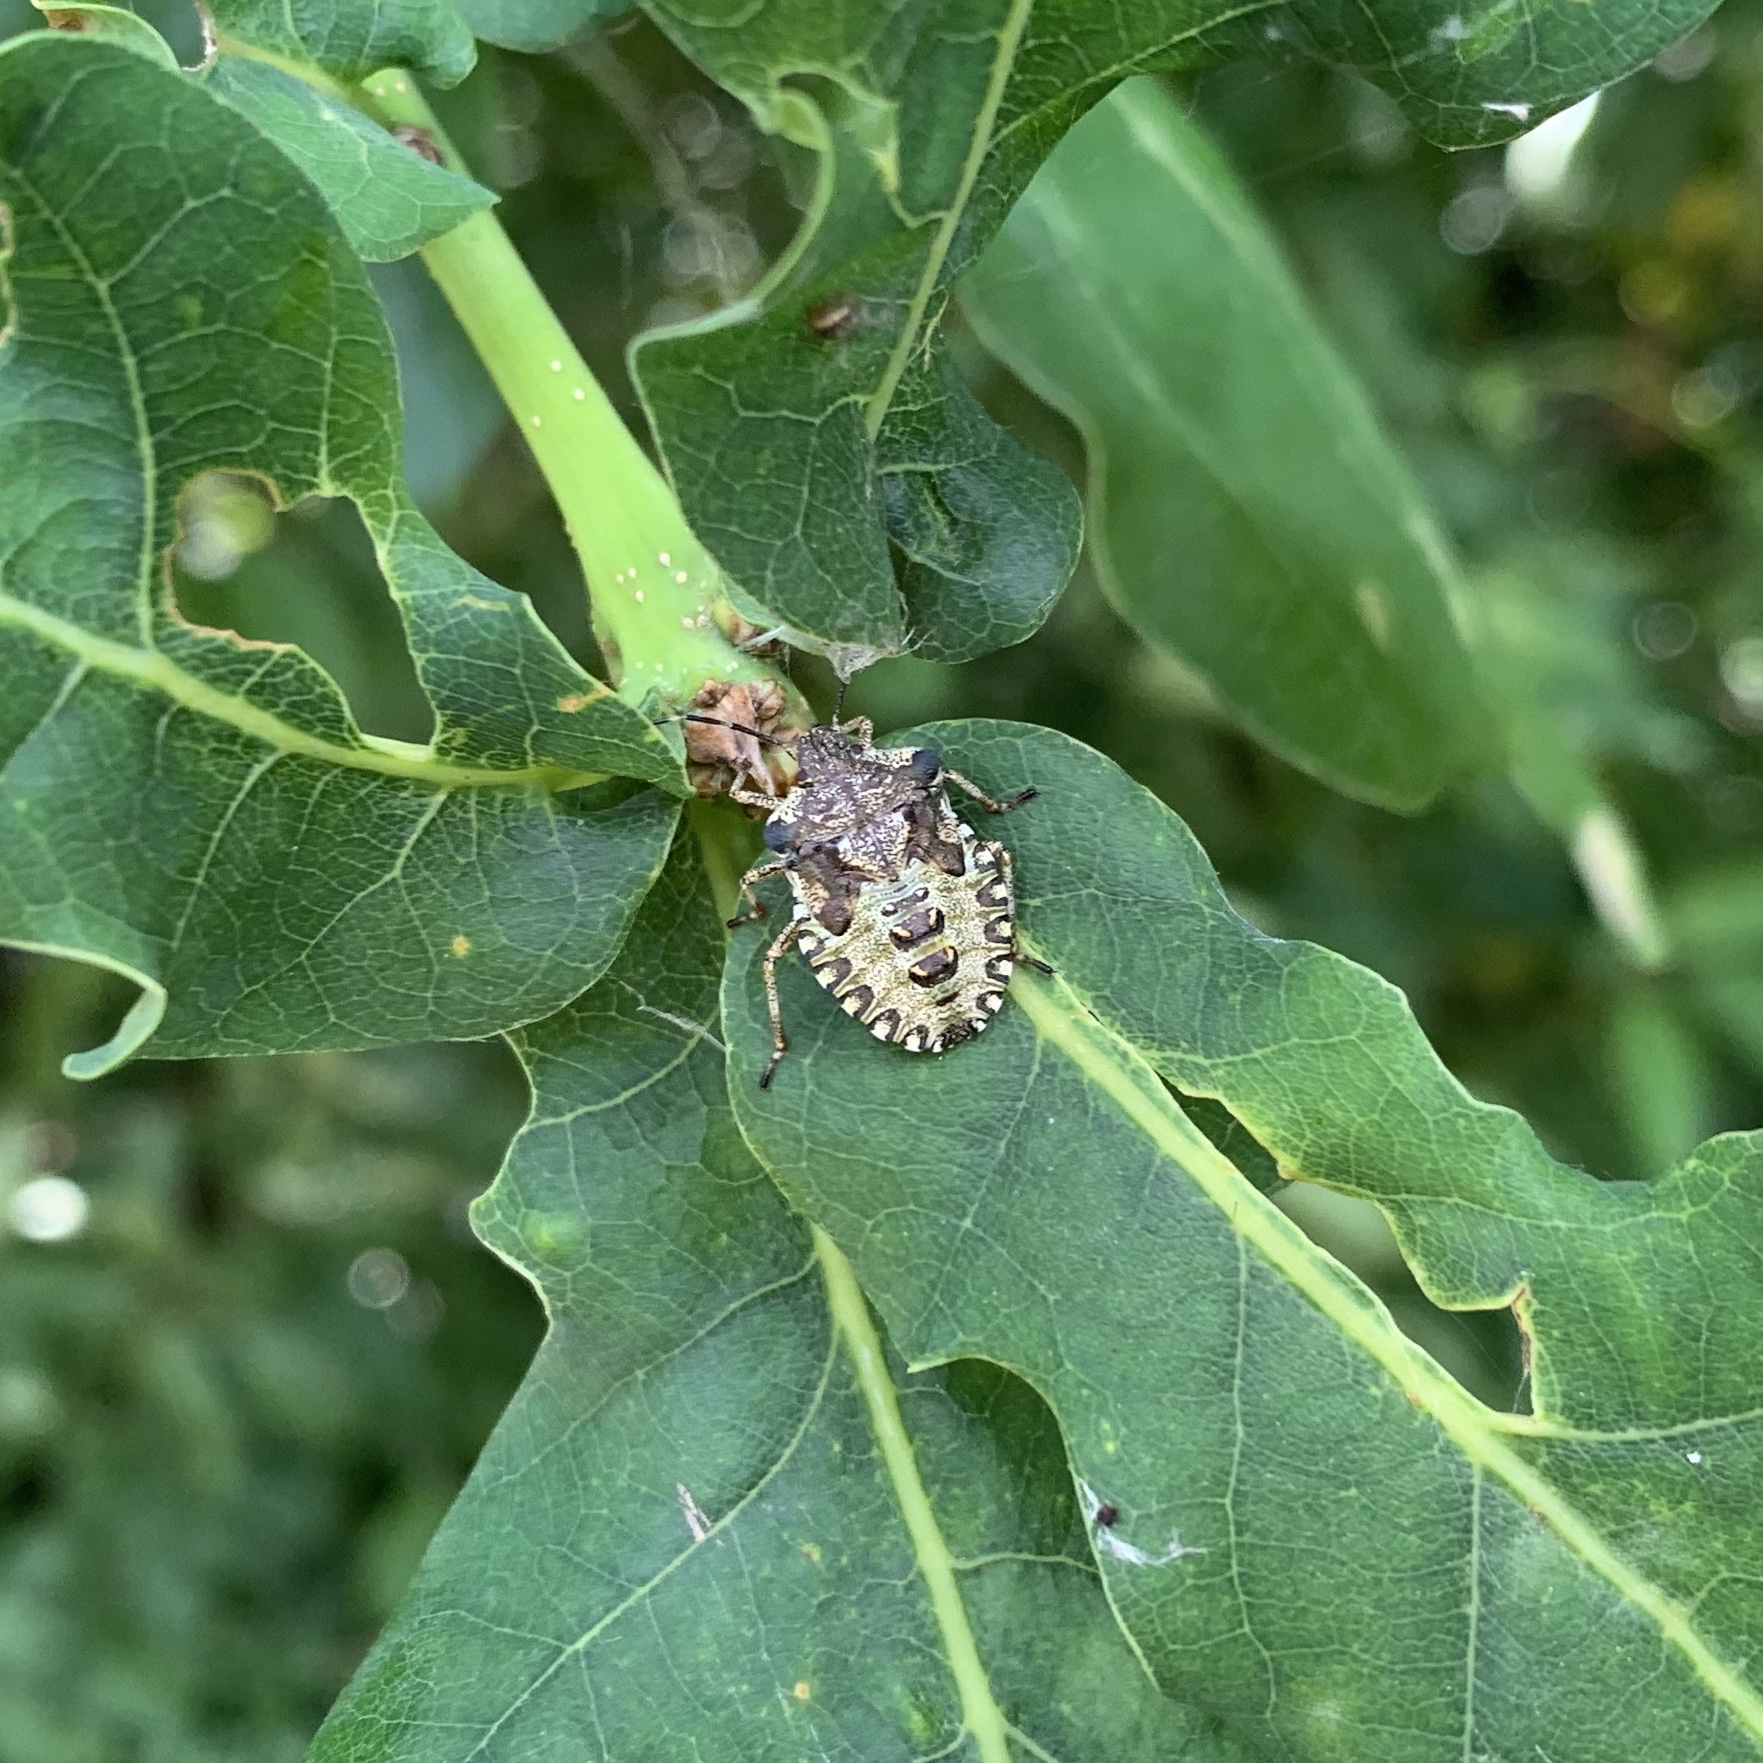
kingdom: Animalia
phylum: Arthropoda
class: Insecta
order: Hemiptera
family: Pentatomidae
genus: Pentatoma
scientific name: Pentatoma rufipes
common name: Forest bug
